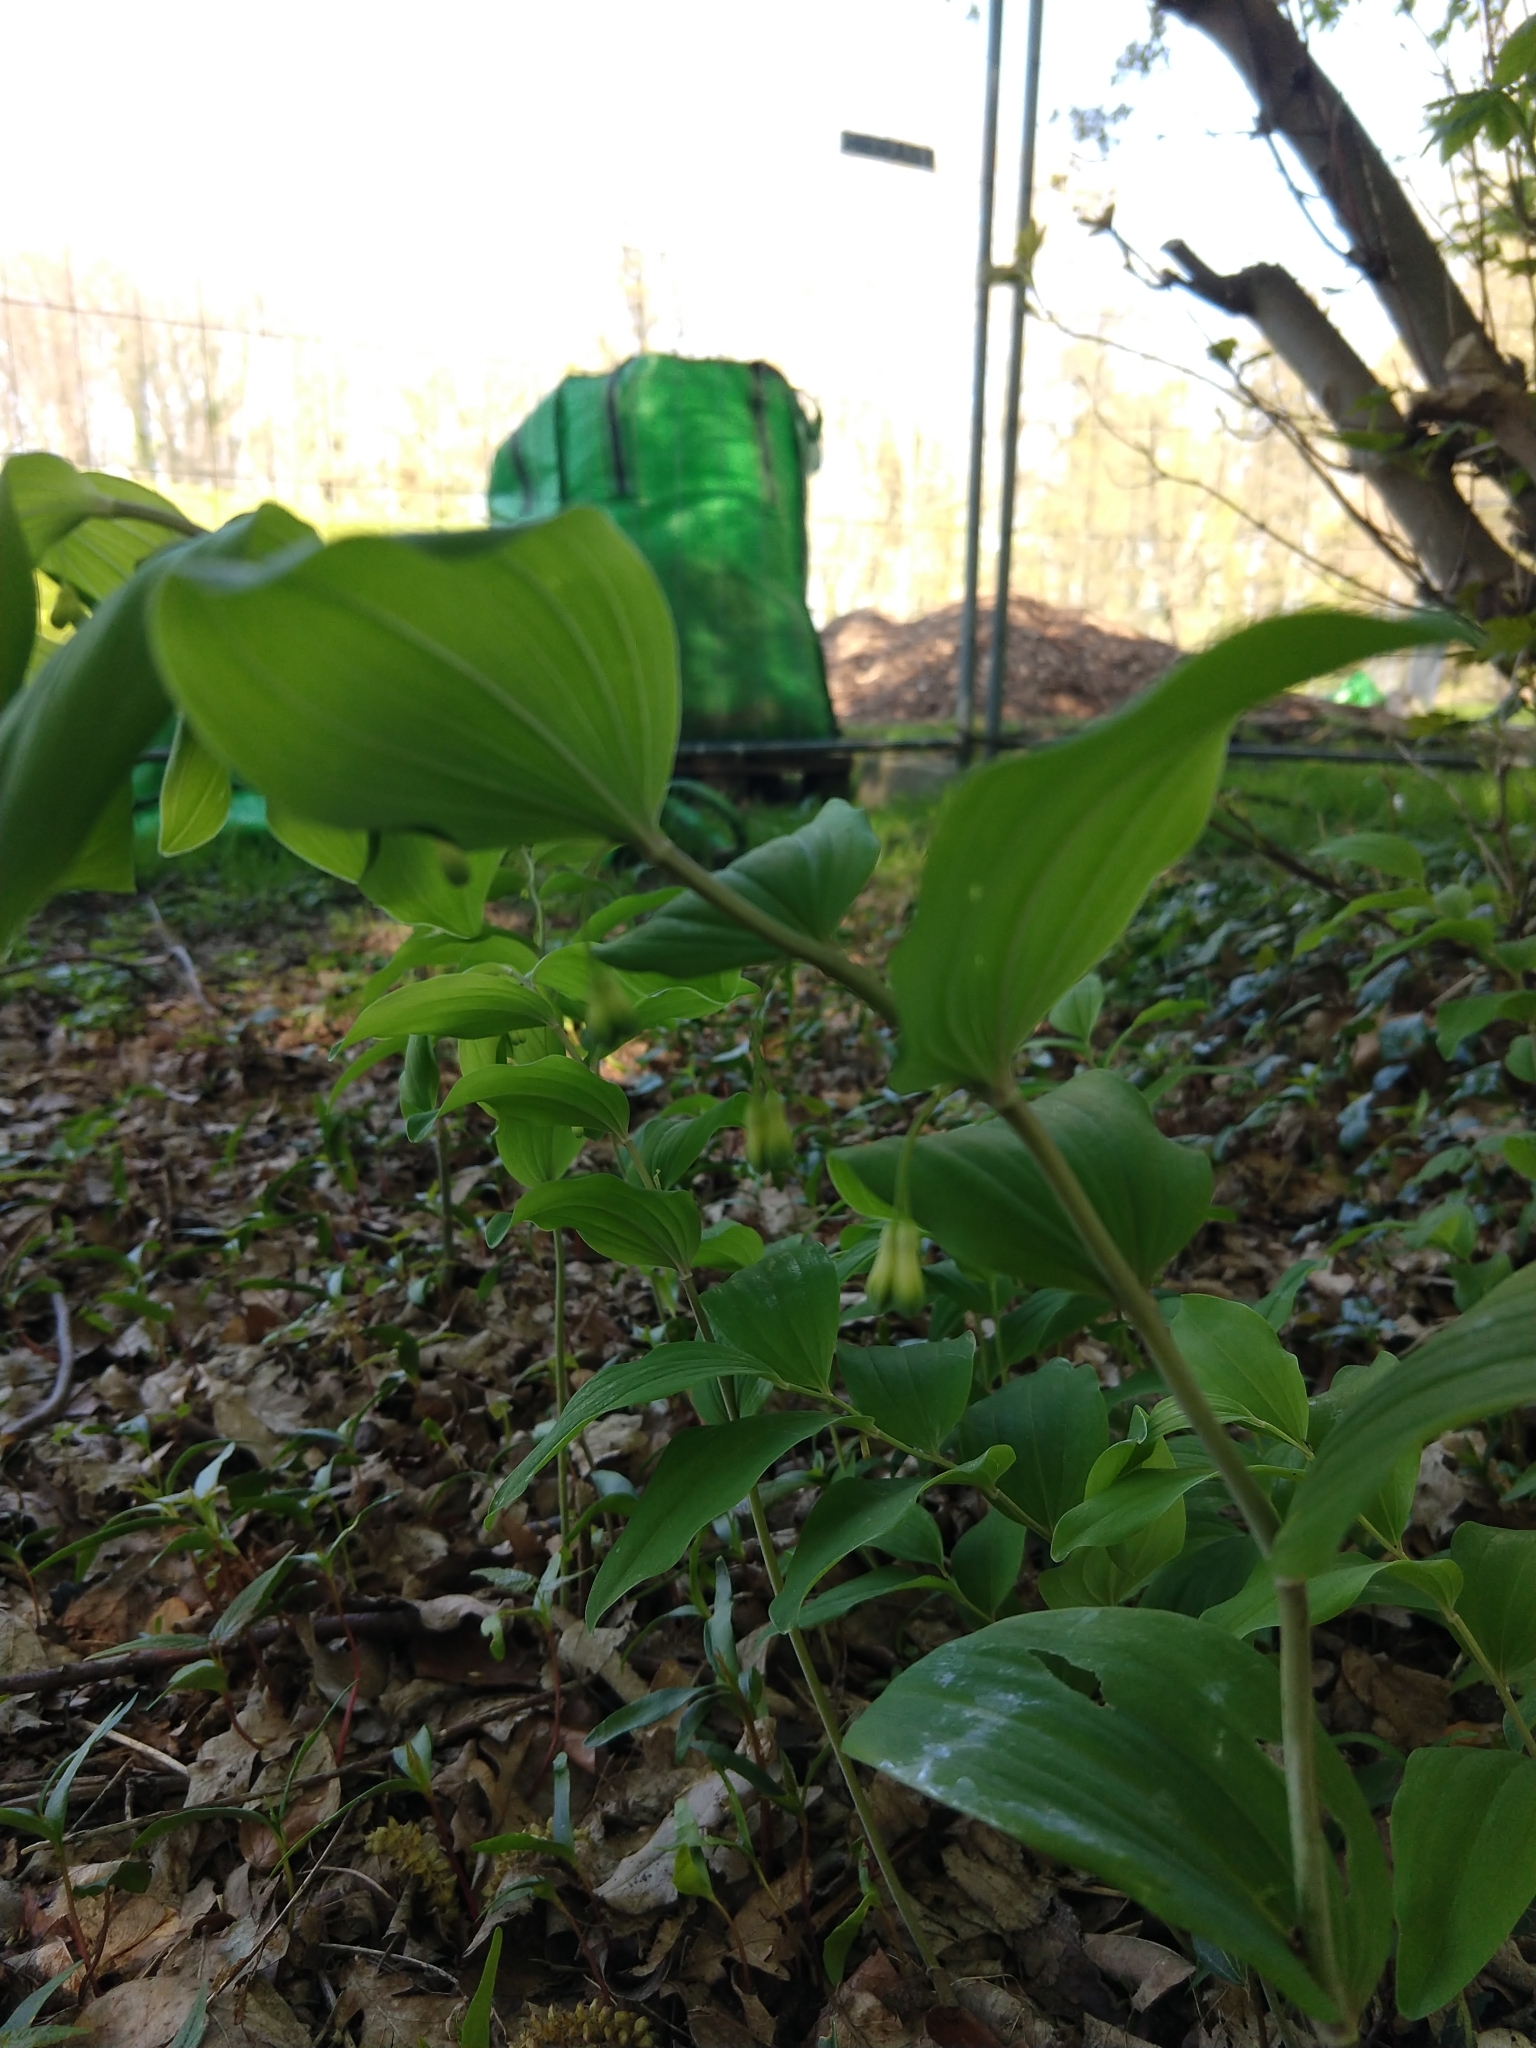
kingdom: Plantae
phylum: Tracheophyta
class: Liliopsida
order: Asparagales
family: Asparagaceae
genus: Polygonatum
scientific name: Polygonatum multiflorum
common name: Solomon's-seal
